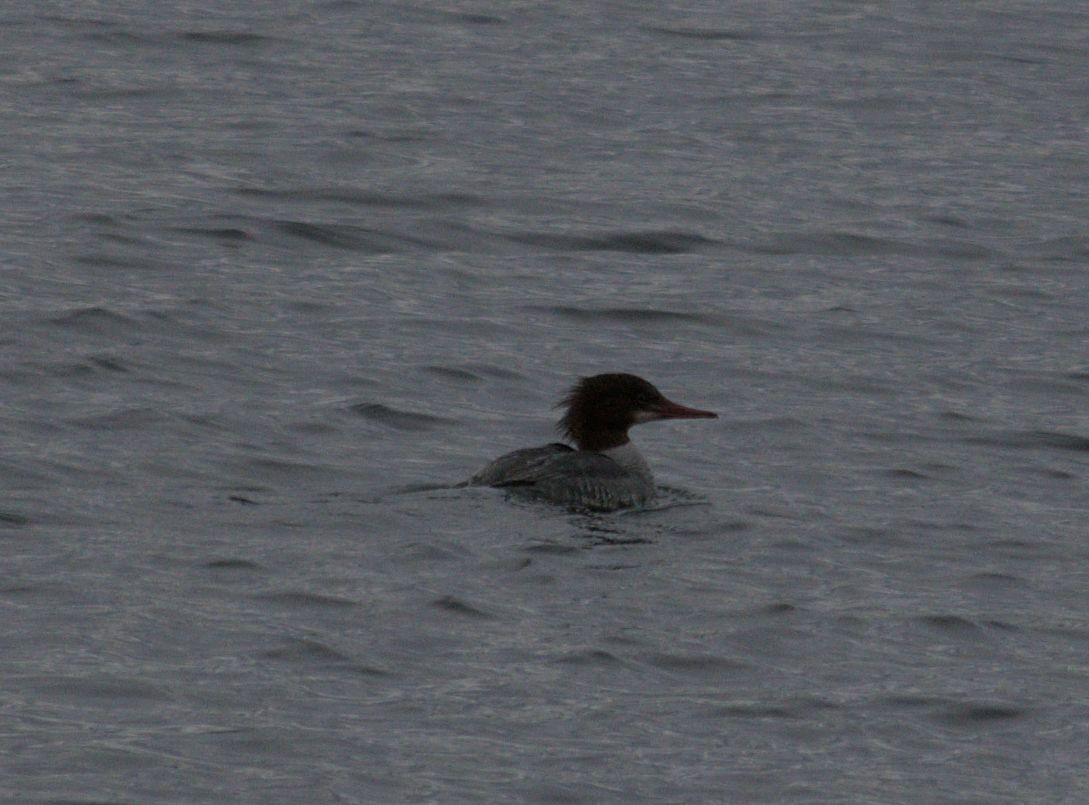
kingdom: Animalia
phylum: Chordata
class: Aves
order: Anseriformes
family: Anatidae
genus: Mergus
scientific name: Mergus merganser
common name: Common merganser
